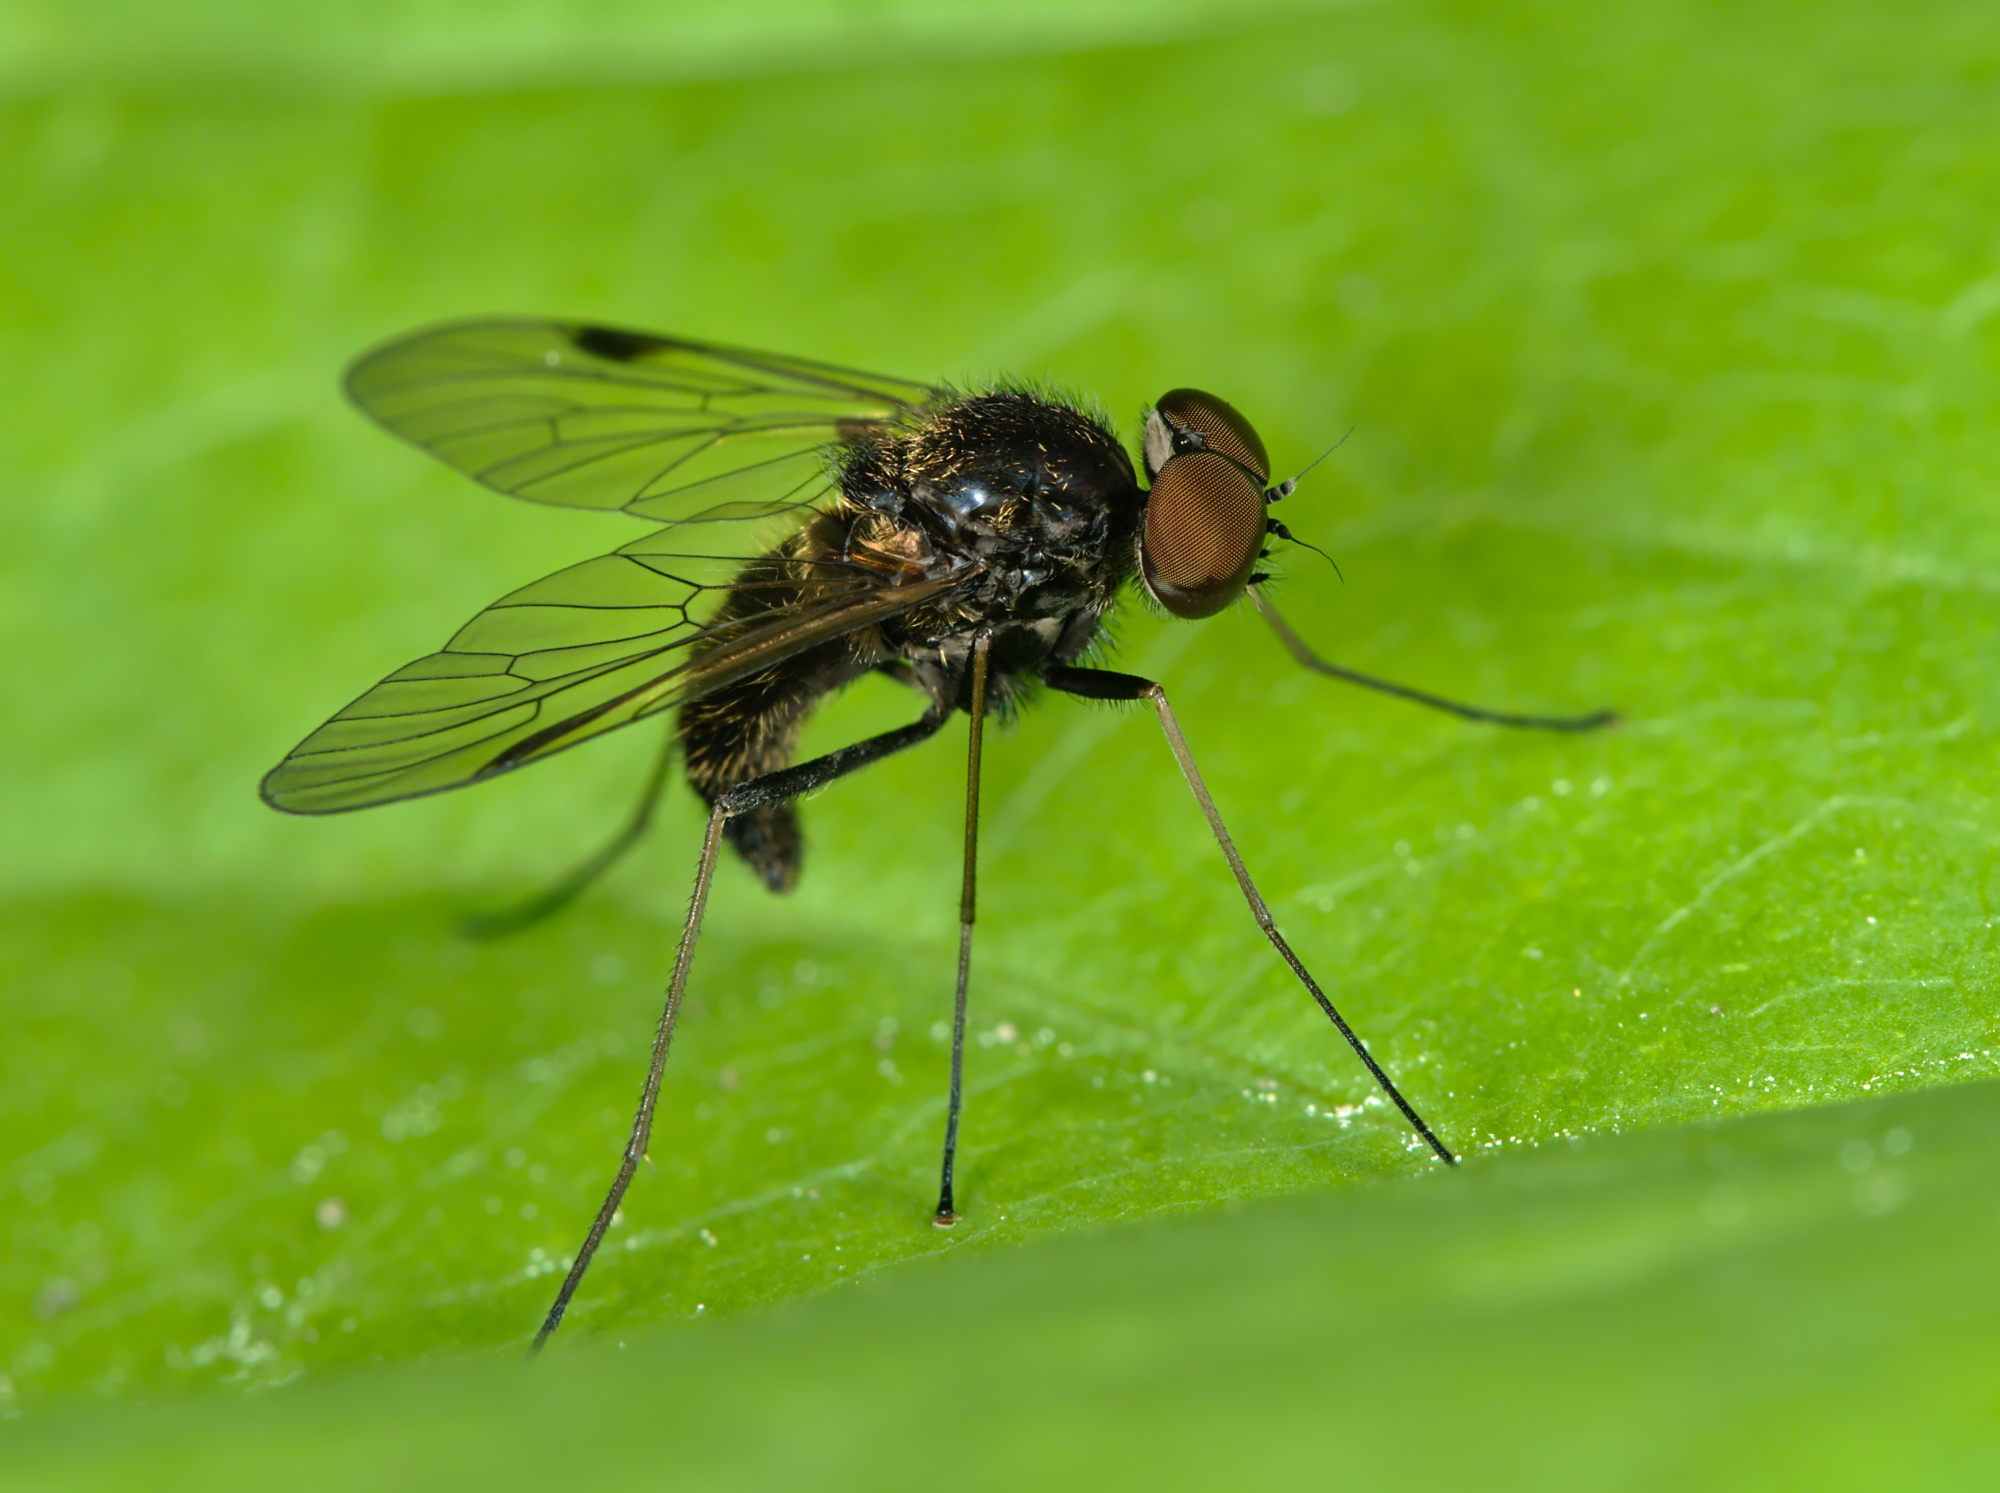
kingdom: Animalia
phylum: Arthropoda
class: Insecta
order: Diptera
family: Rhagionidae
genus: Chrysopilus
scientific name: Chrysopilus cristatus
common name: Black snipefly
